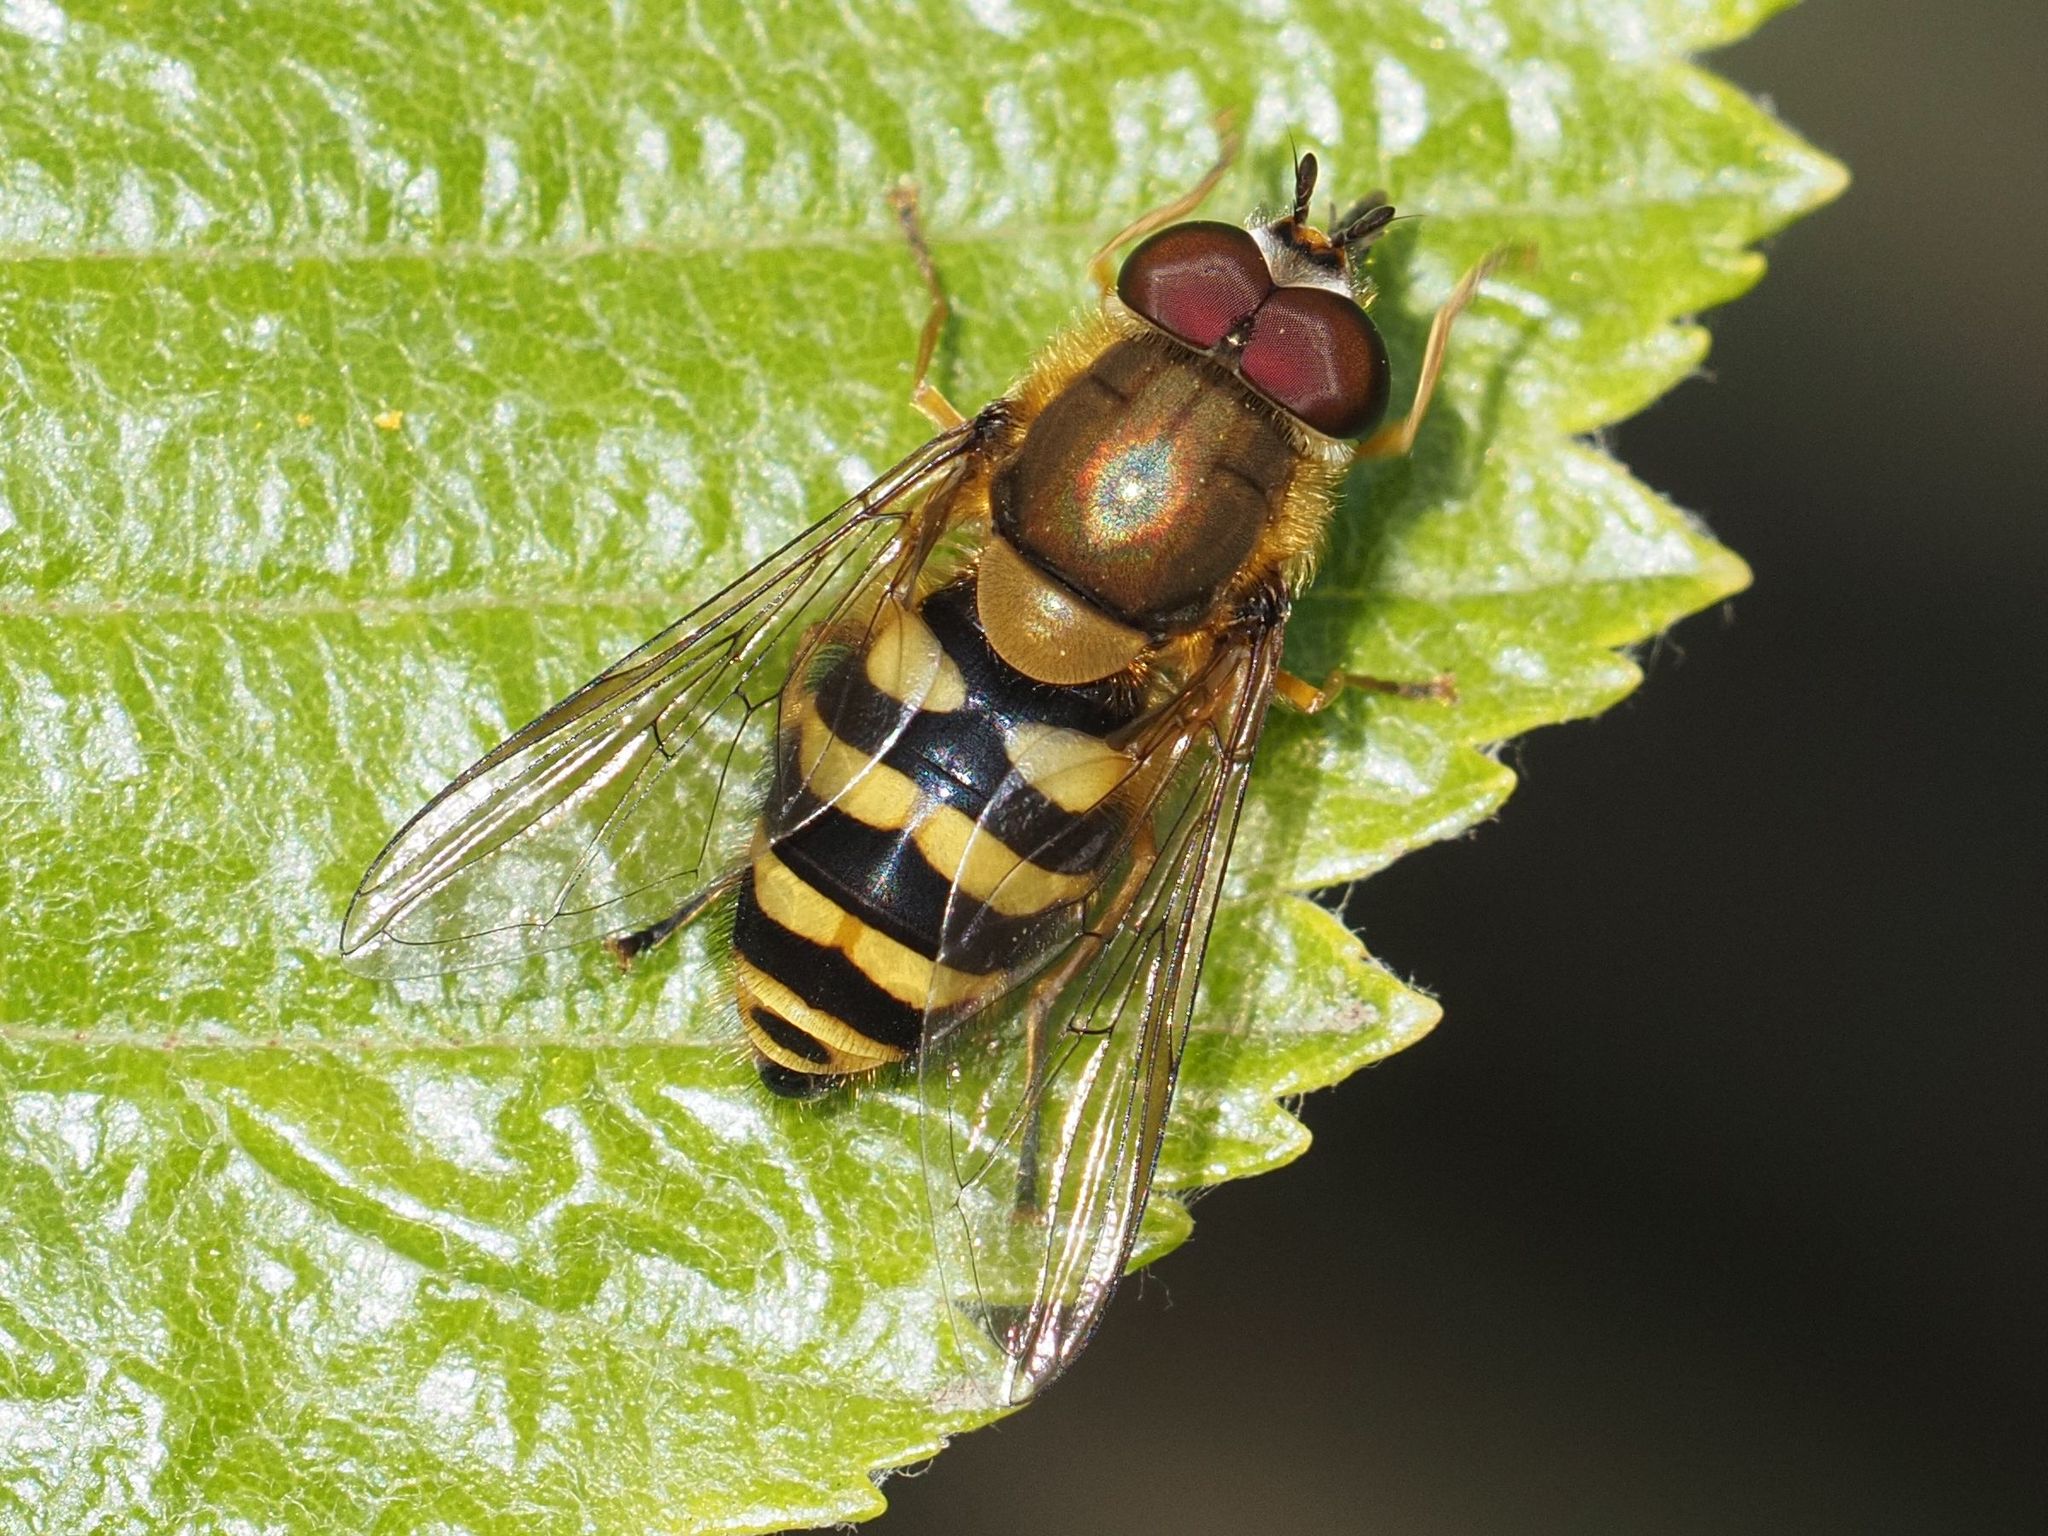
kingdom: Animalia
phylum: Arthropoda
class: Insecta
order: Diptera
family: Syrphidae
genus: Syrphus
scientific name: Syrphus
